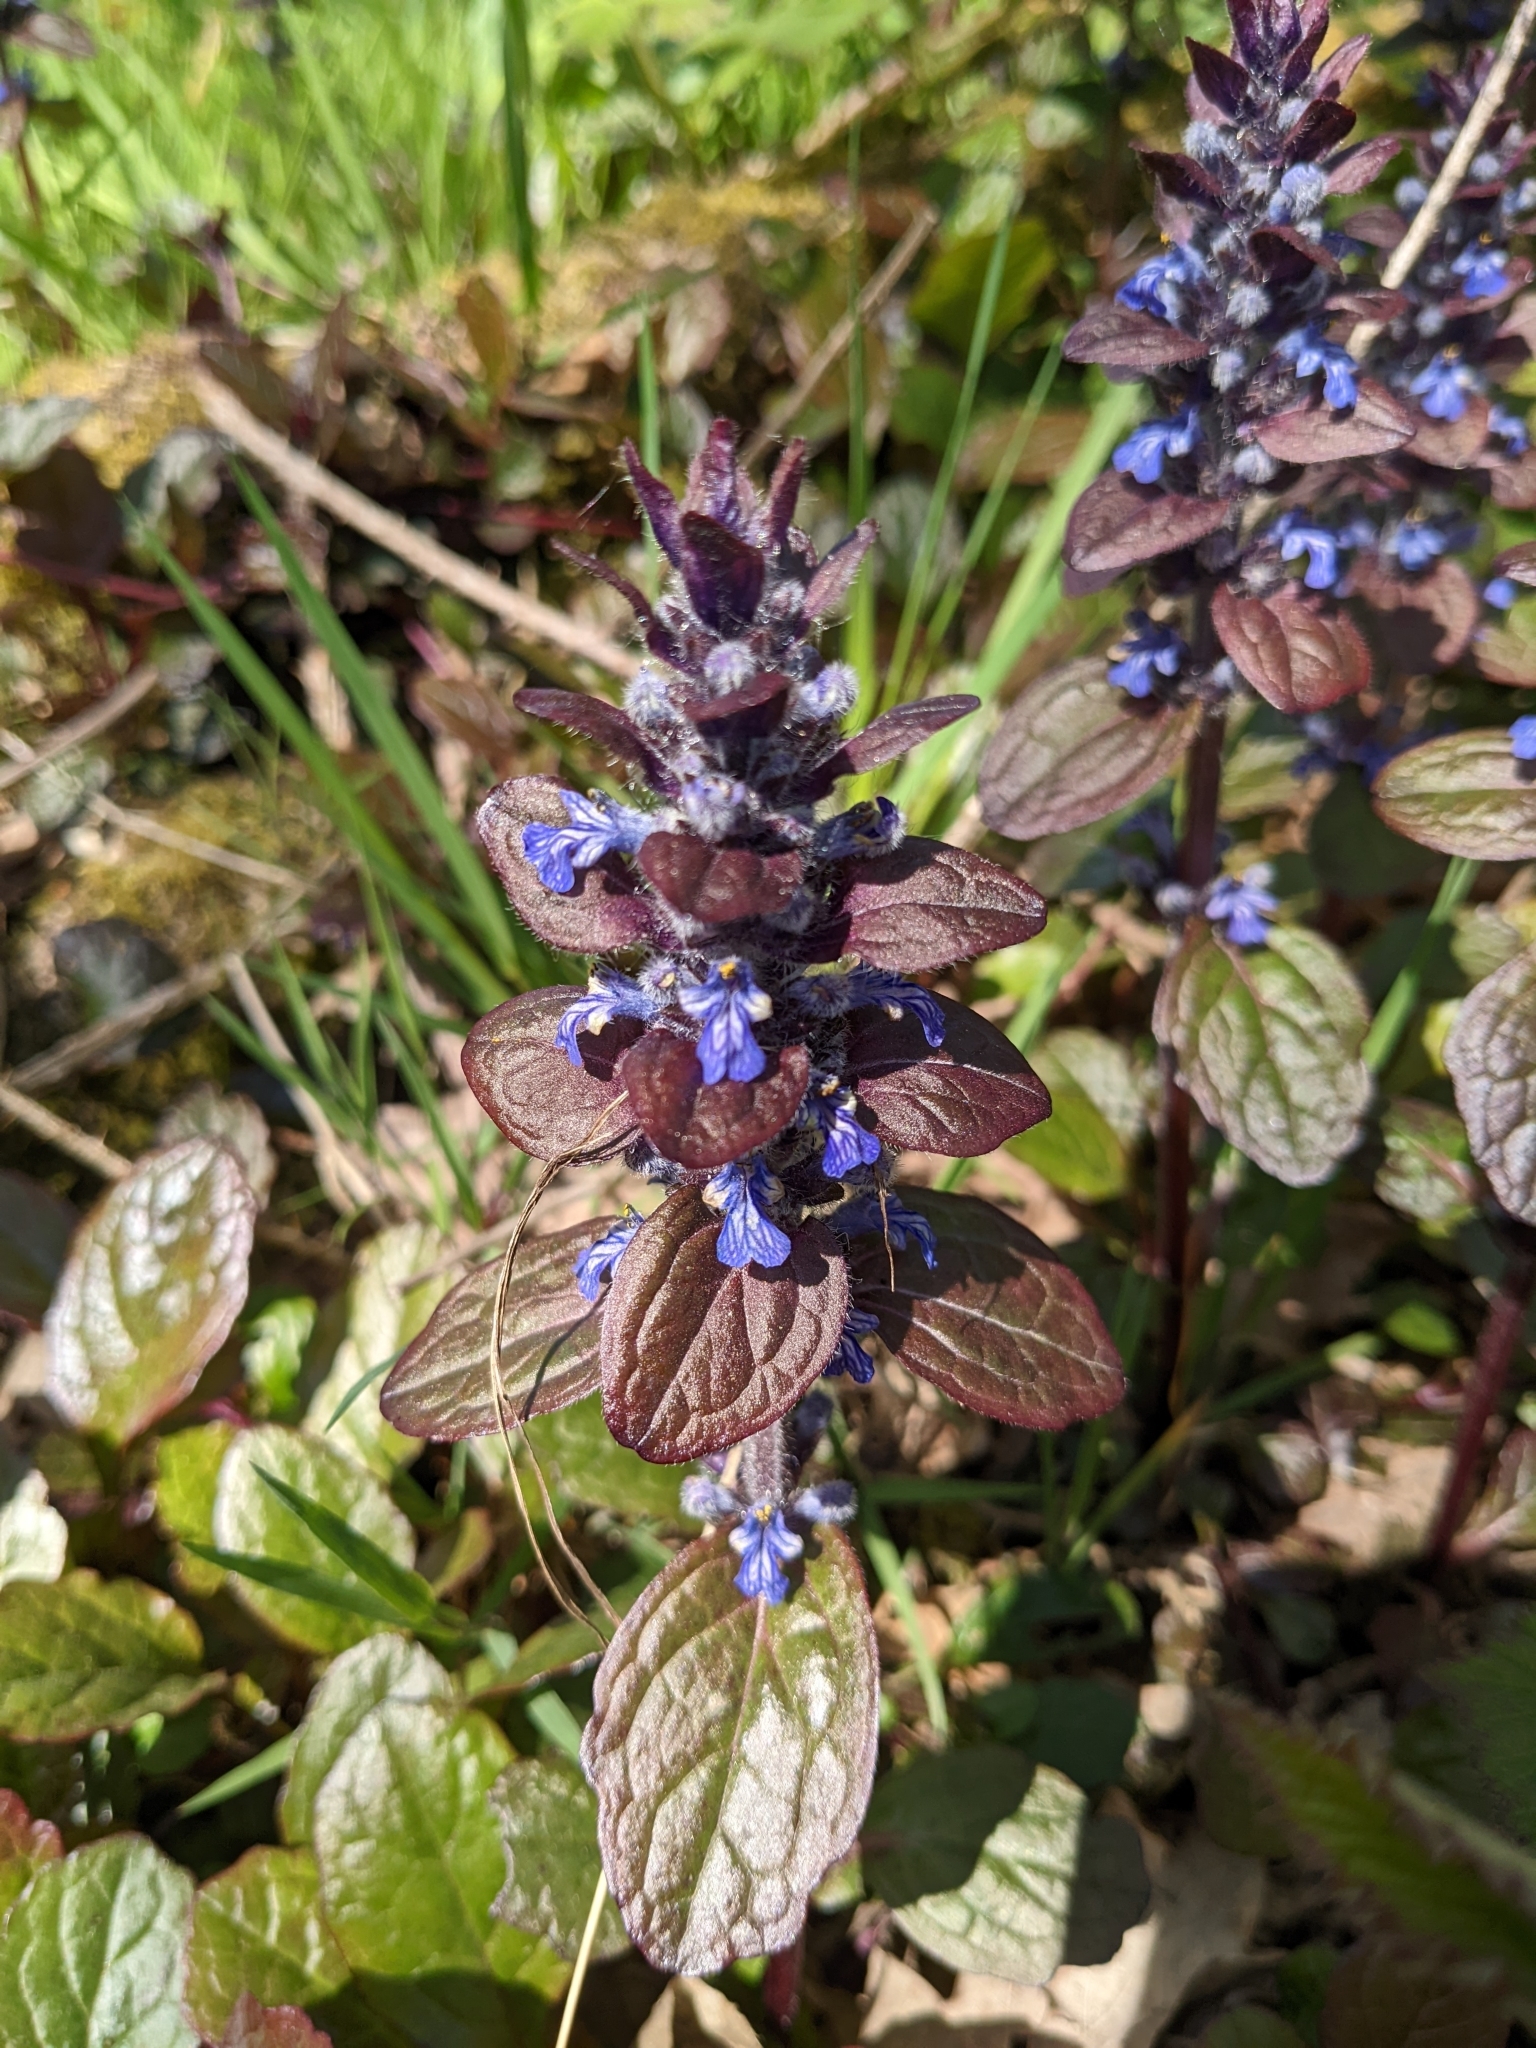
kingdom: Plantae
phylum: Tracheophyta
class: Magnoliopsida
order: Lamiales
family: Lamiaceae
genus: Ajuga
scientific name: Ajuga reptans
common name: Bugle
